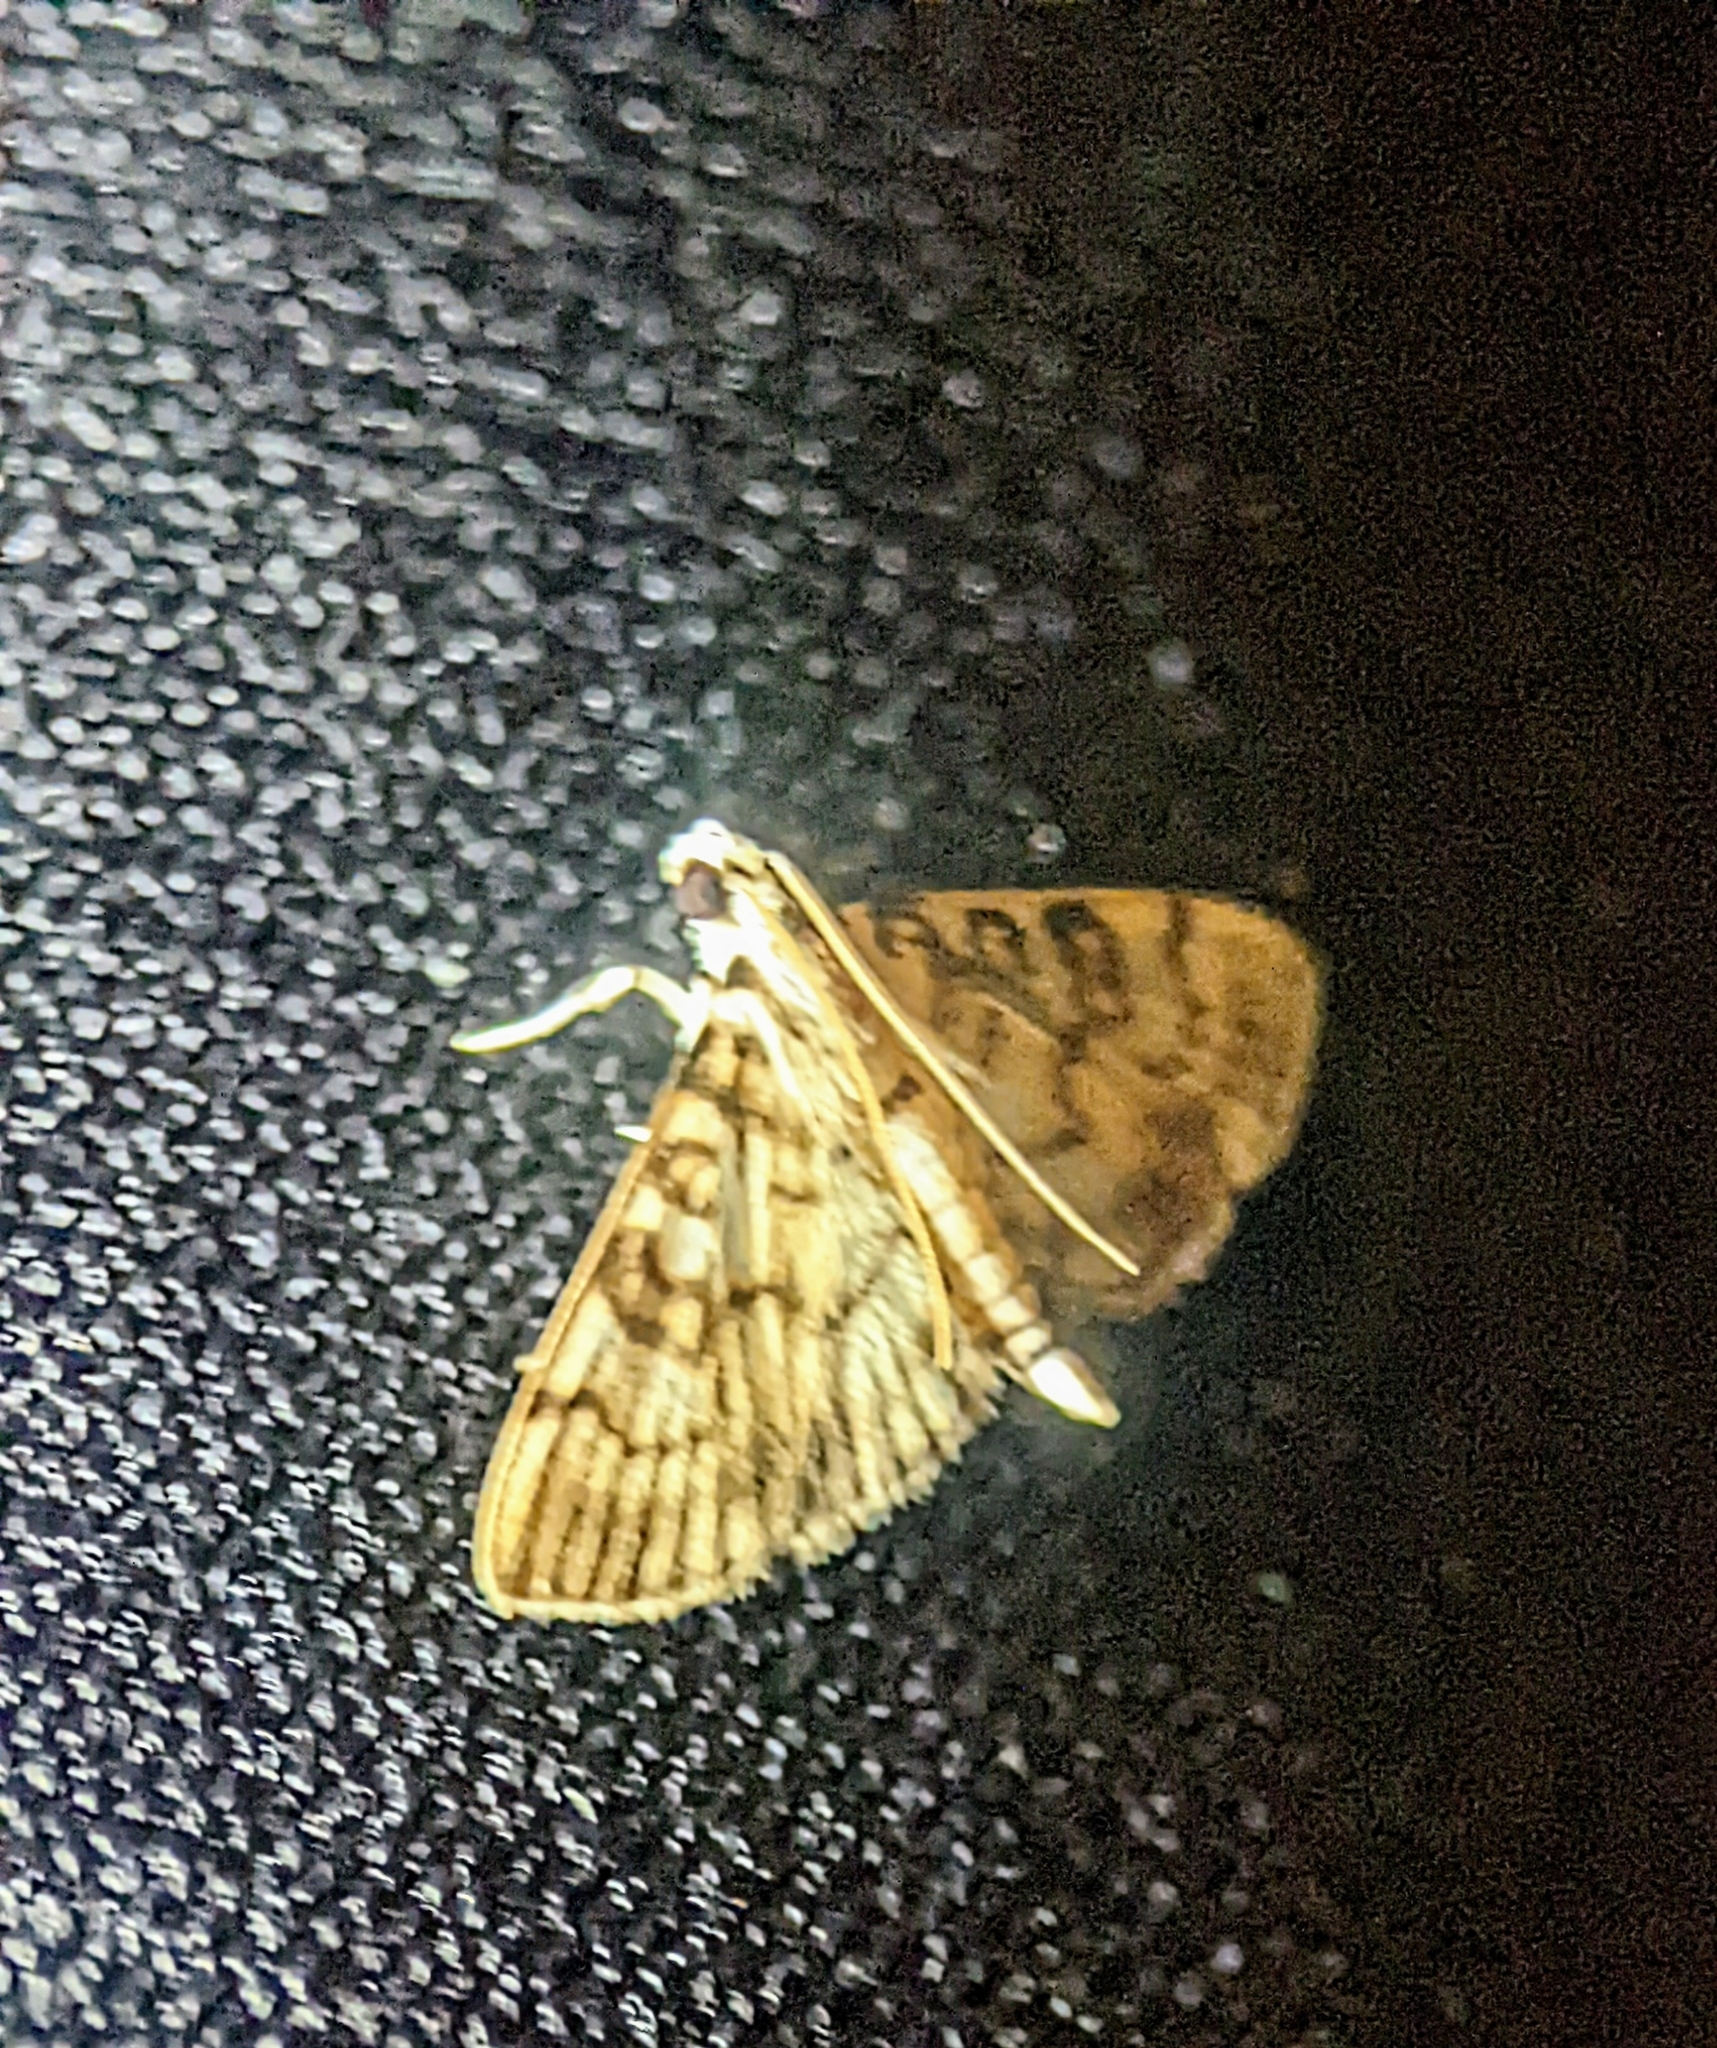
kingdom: Animalia
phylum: Arthropoda
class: Insecta
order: Lepidoptera
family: Crambidae
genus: Tabidia
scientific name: Tabidia aculealis
